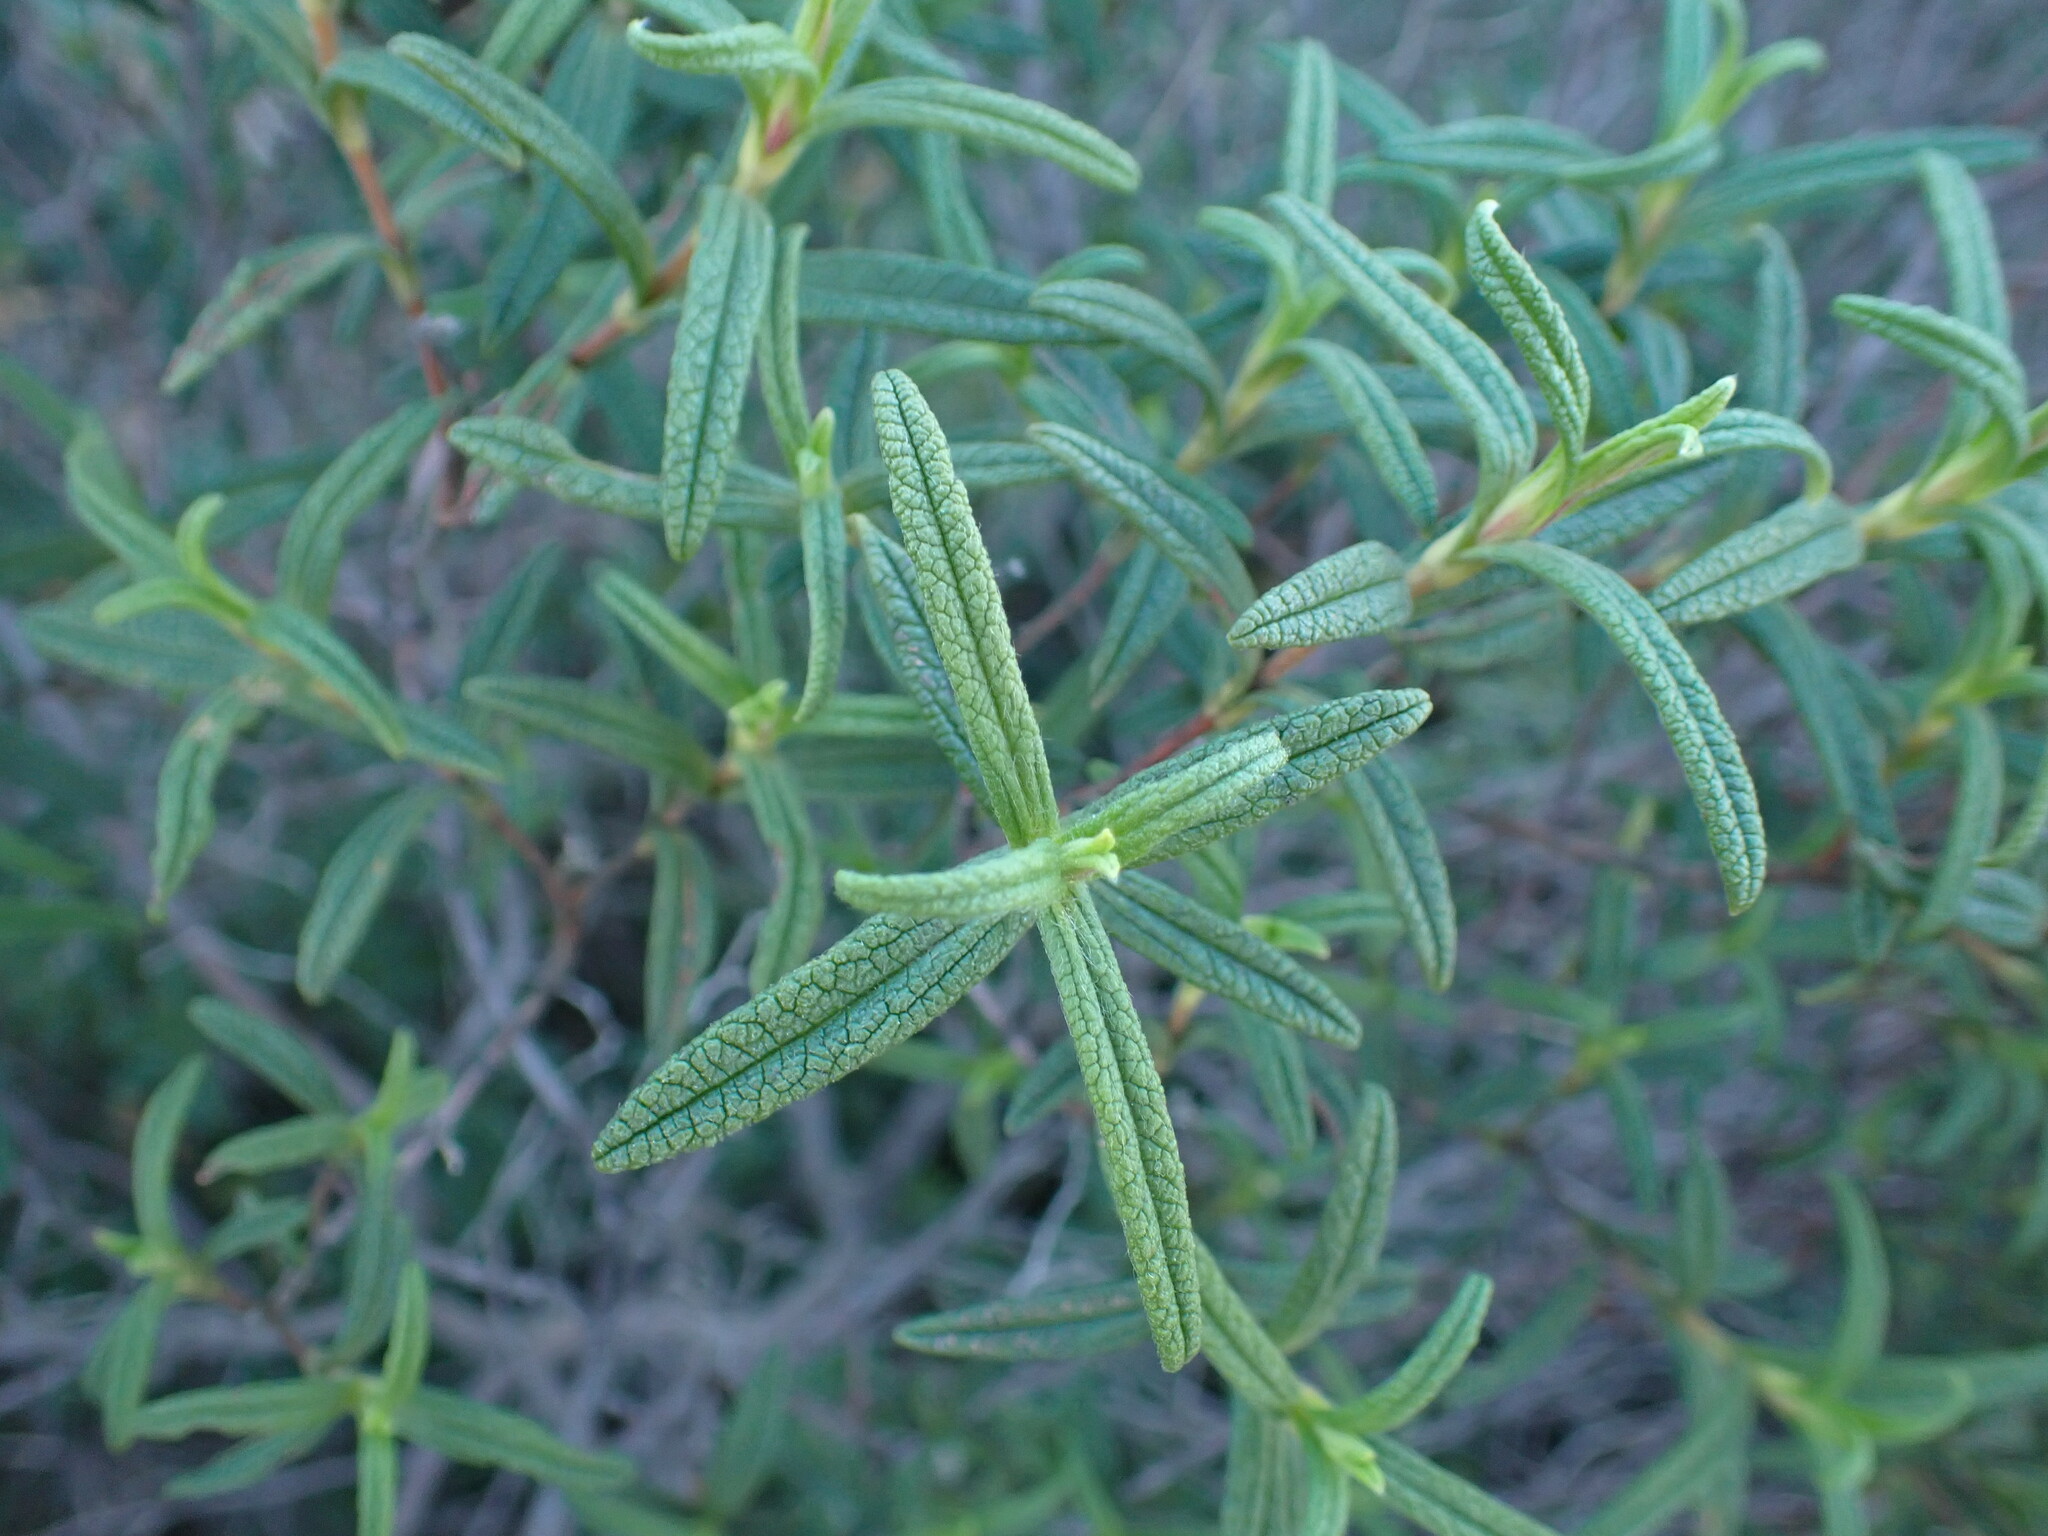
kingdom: Plantae
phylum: Tracheophyta
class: Magnoliopsida
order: Malvales
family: Cistaceae
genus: Cistus
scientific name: Cistus monspeliensis
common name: Montpelier cistus
